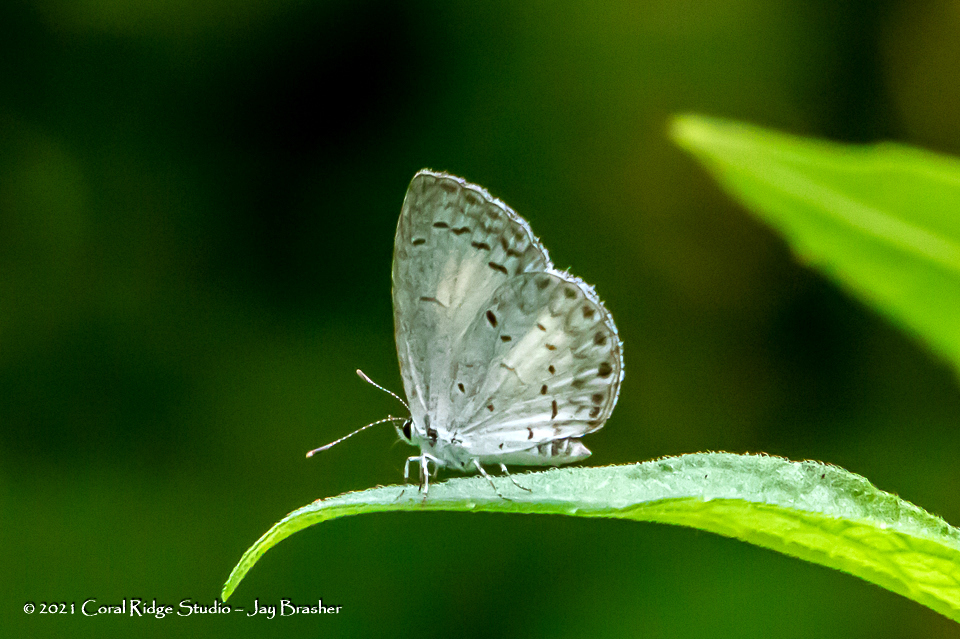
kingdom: Animalia
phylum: Arthropoda
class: Insecta
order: Lepidoptera
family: Lycaenidae
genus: Cyaniris
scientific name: Cyaniris neglecta
